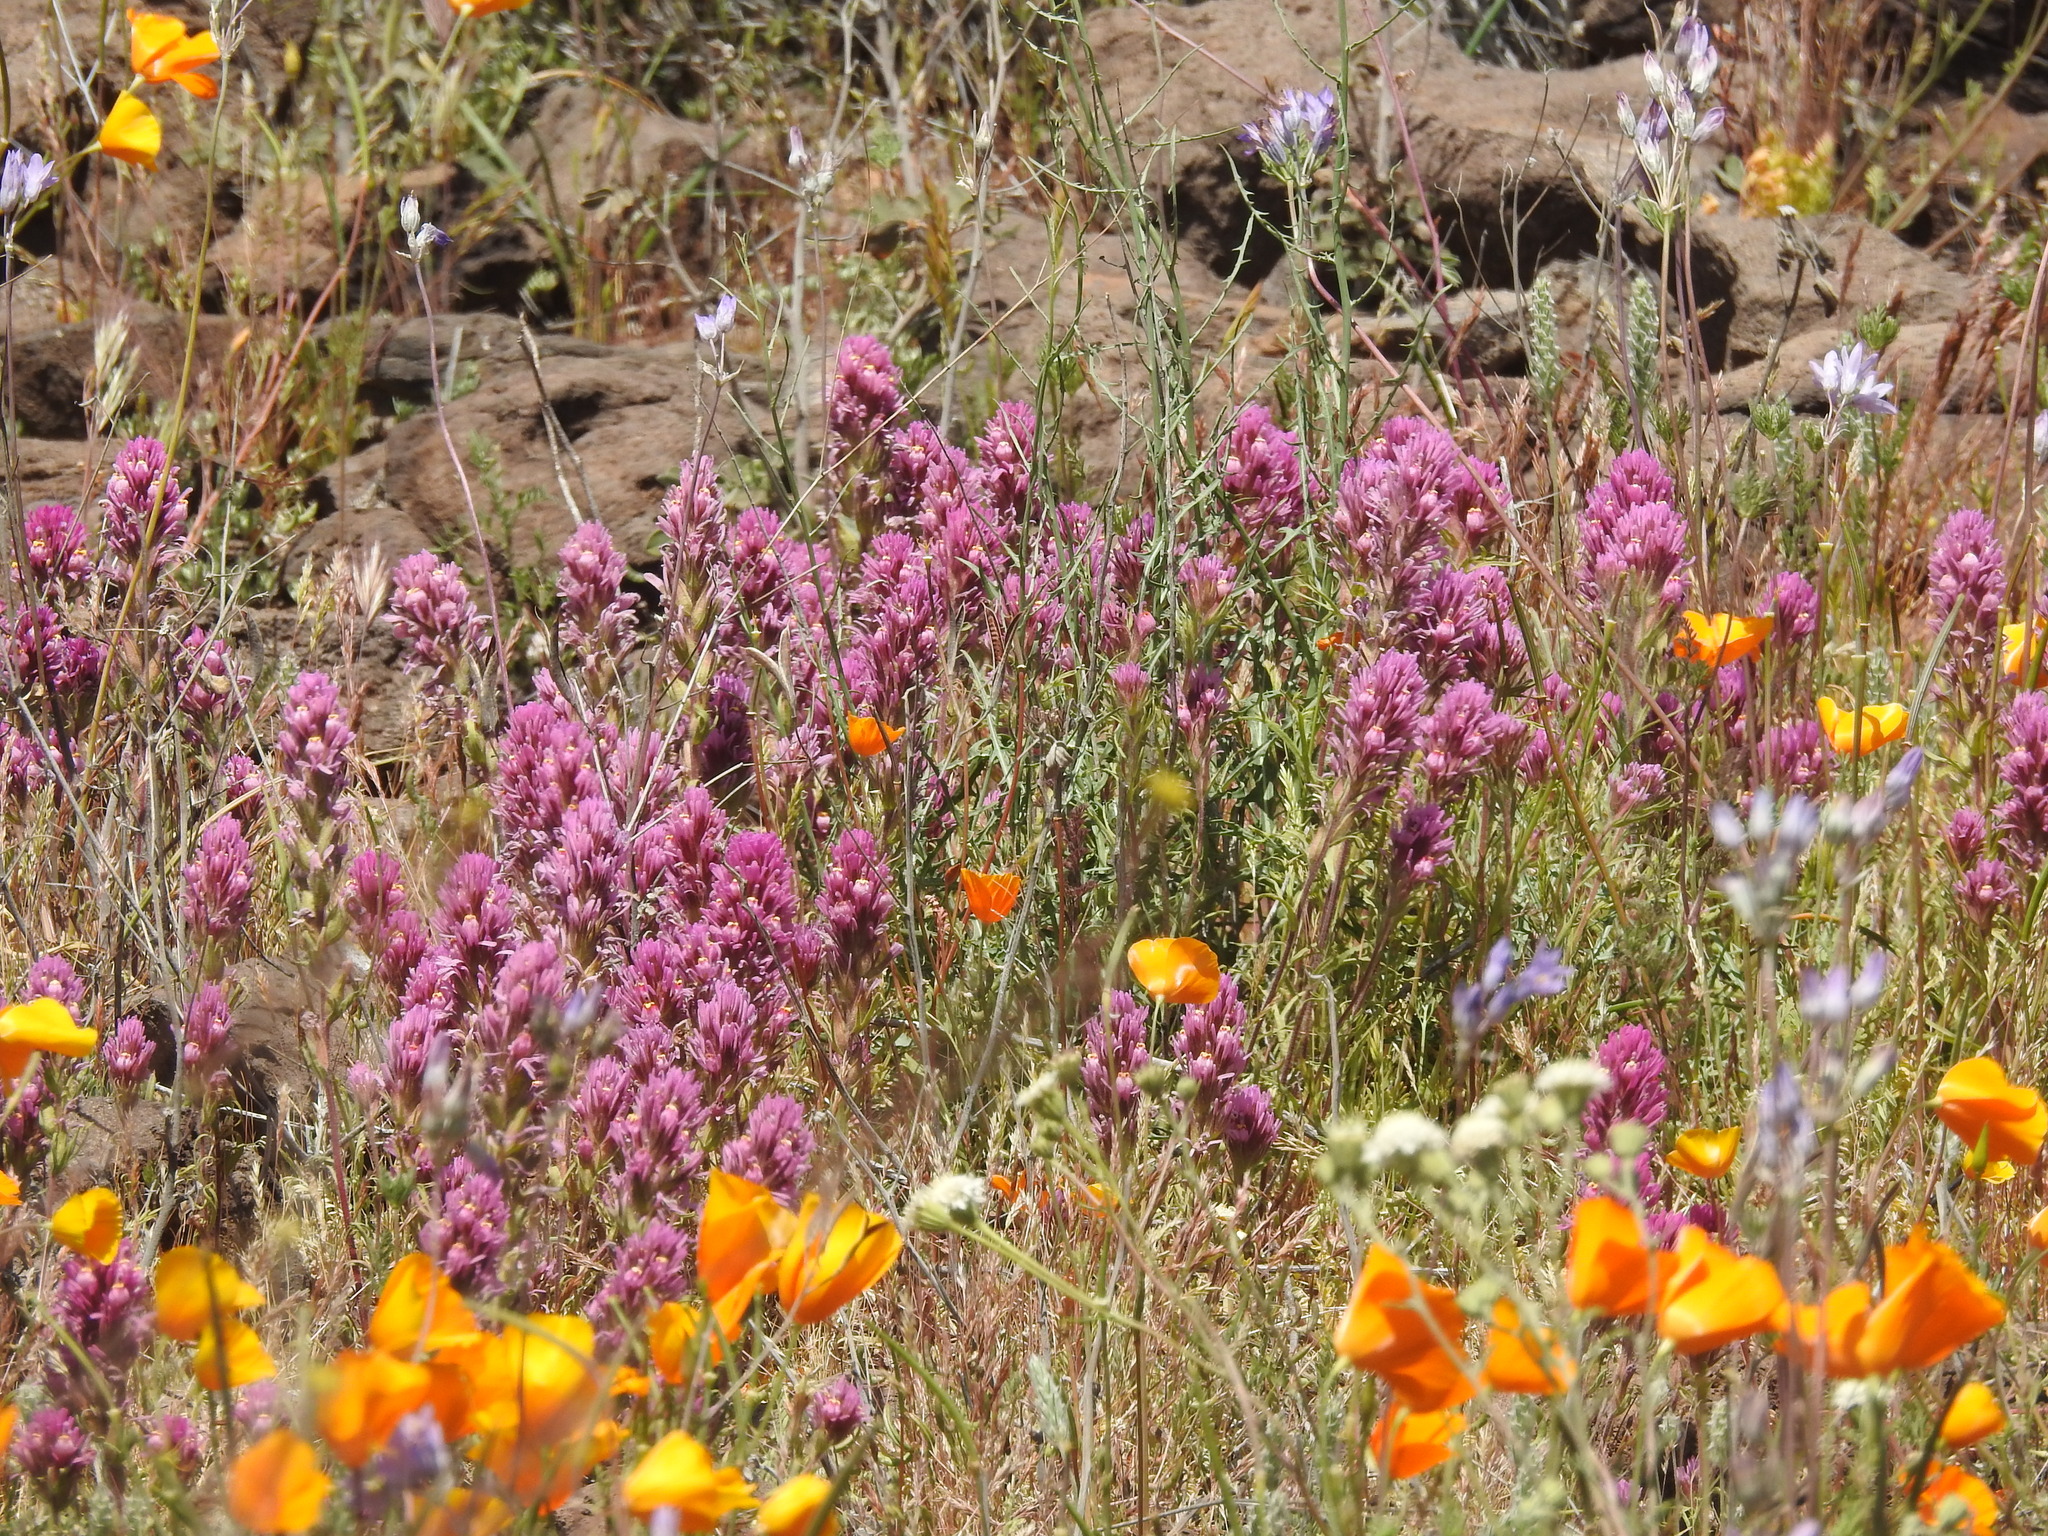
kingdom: Plantae
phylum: Tracheophyta
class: Magnoliopsida
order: Lamiales
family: Orobanchaceae
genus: Castilleja
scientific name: Castilleja exserta
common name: Purple owl-clover
